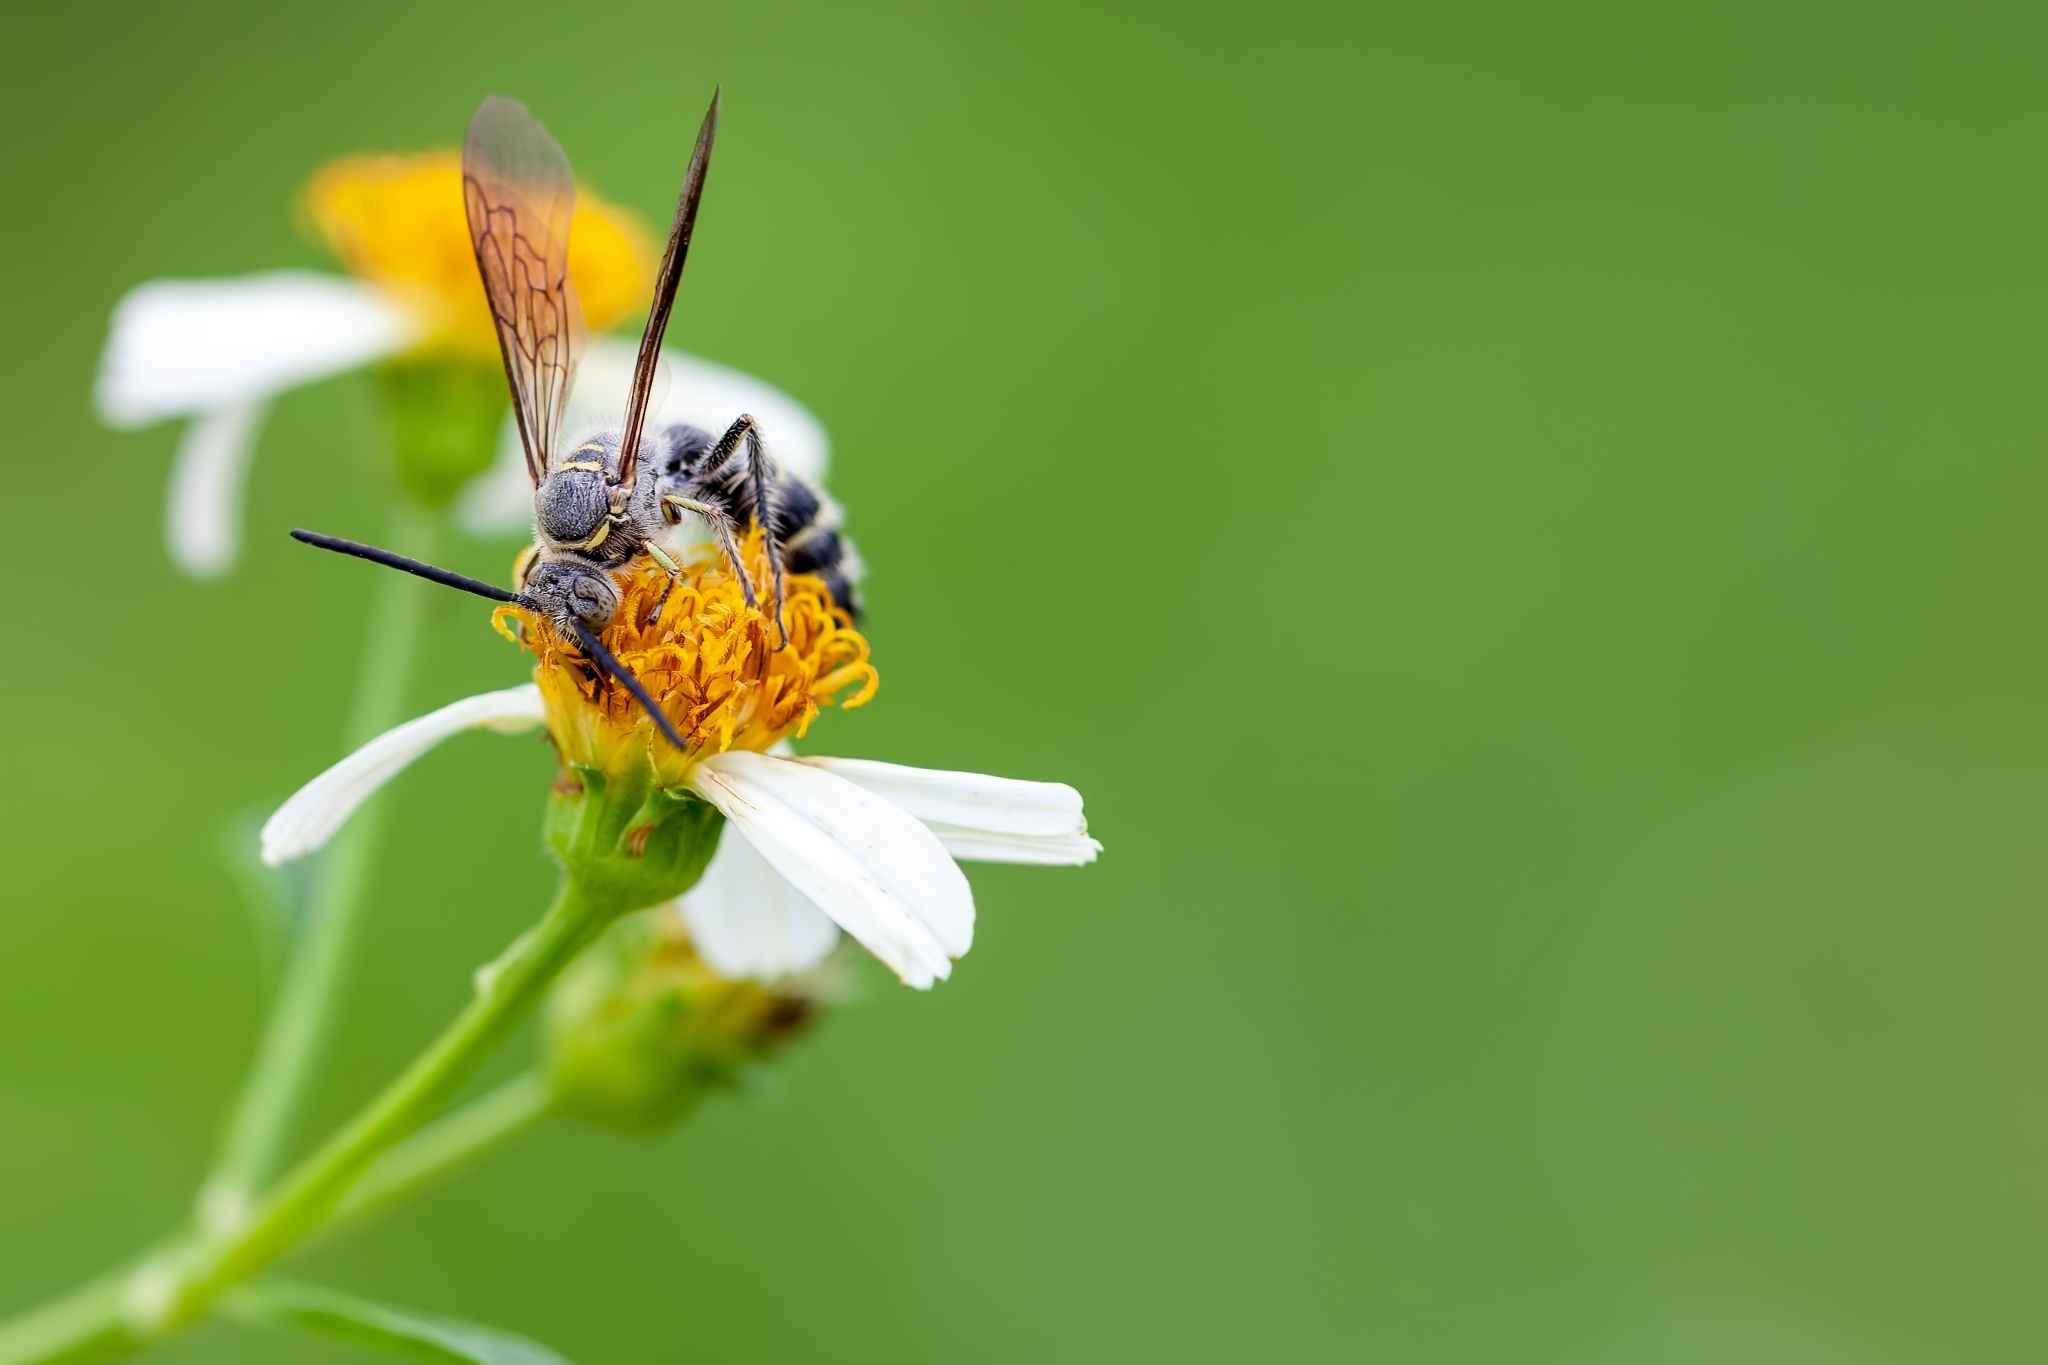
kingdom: Animalia
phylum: Arthropoda
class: Insecta
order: Hymenoptera
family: Scoliidae
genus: Dielis
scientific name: Dielis
